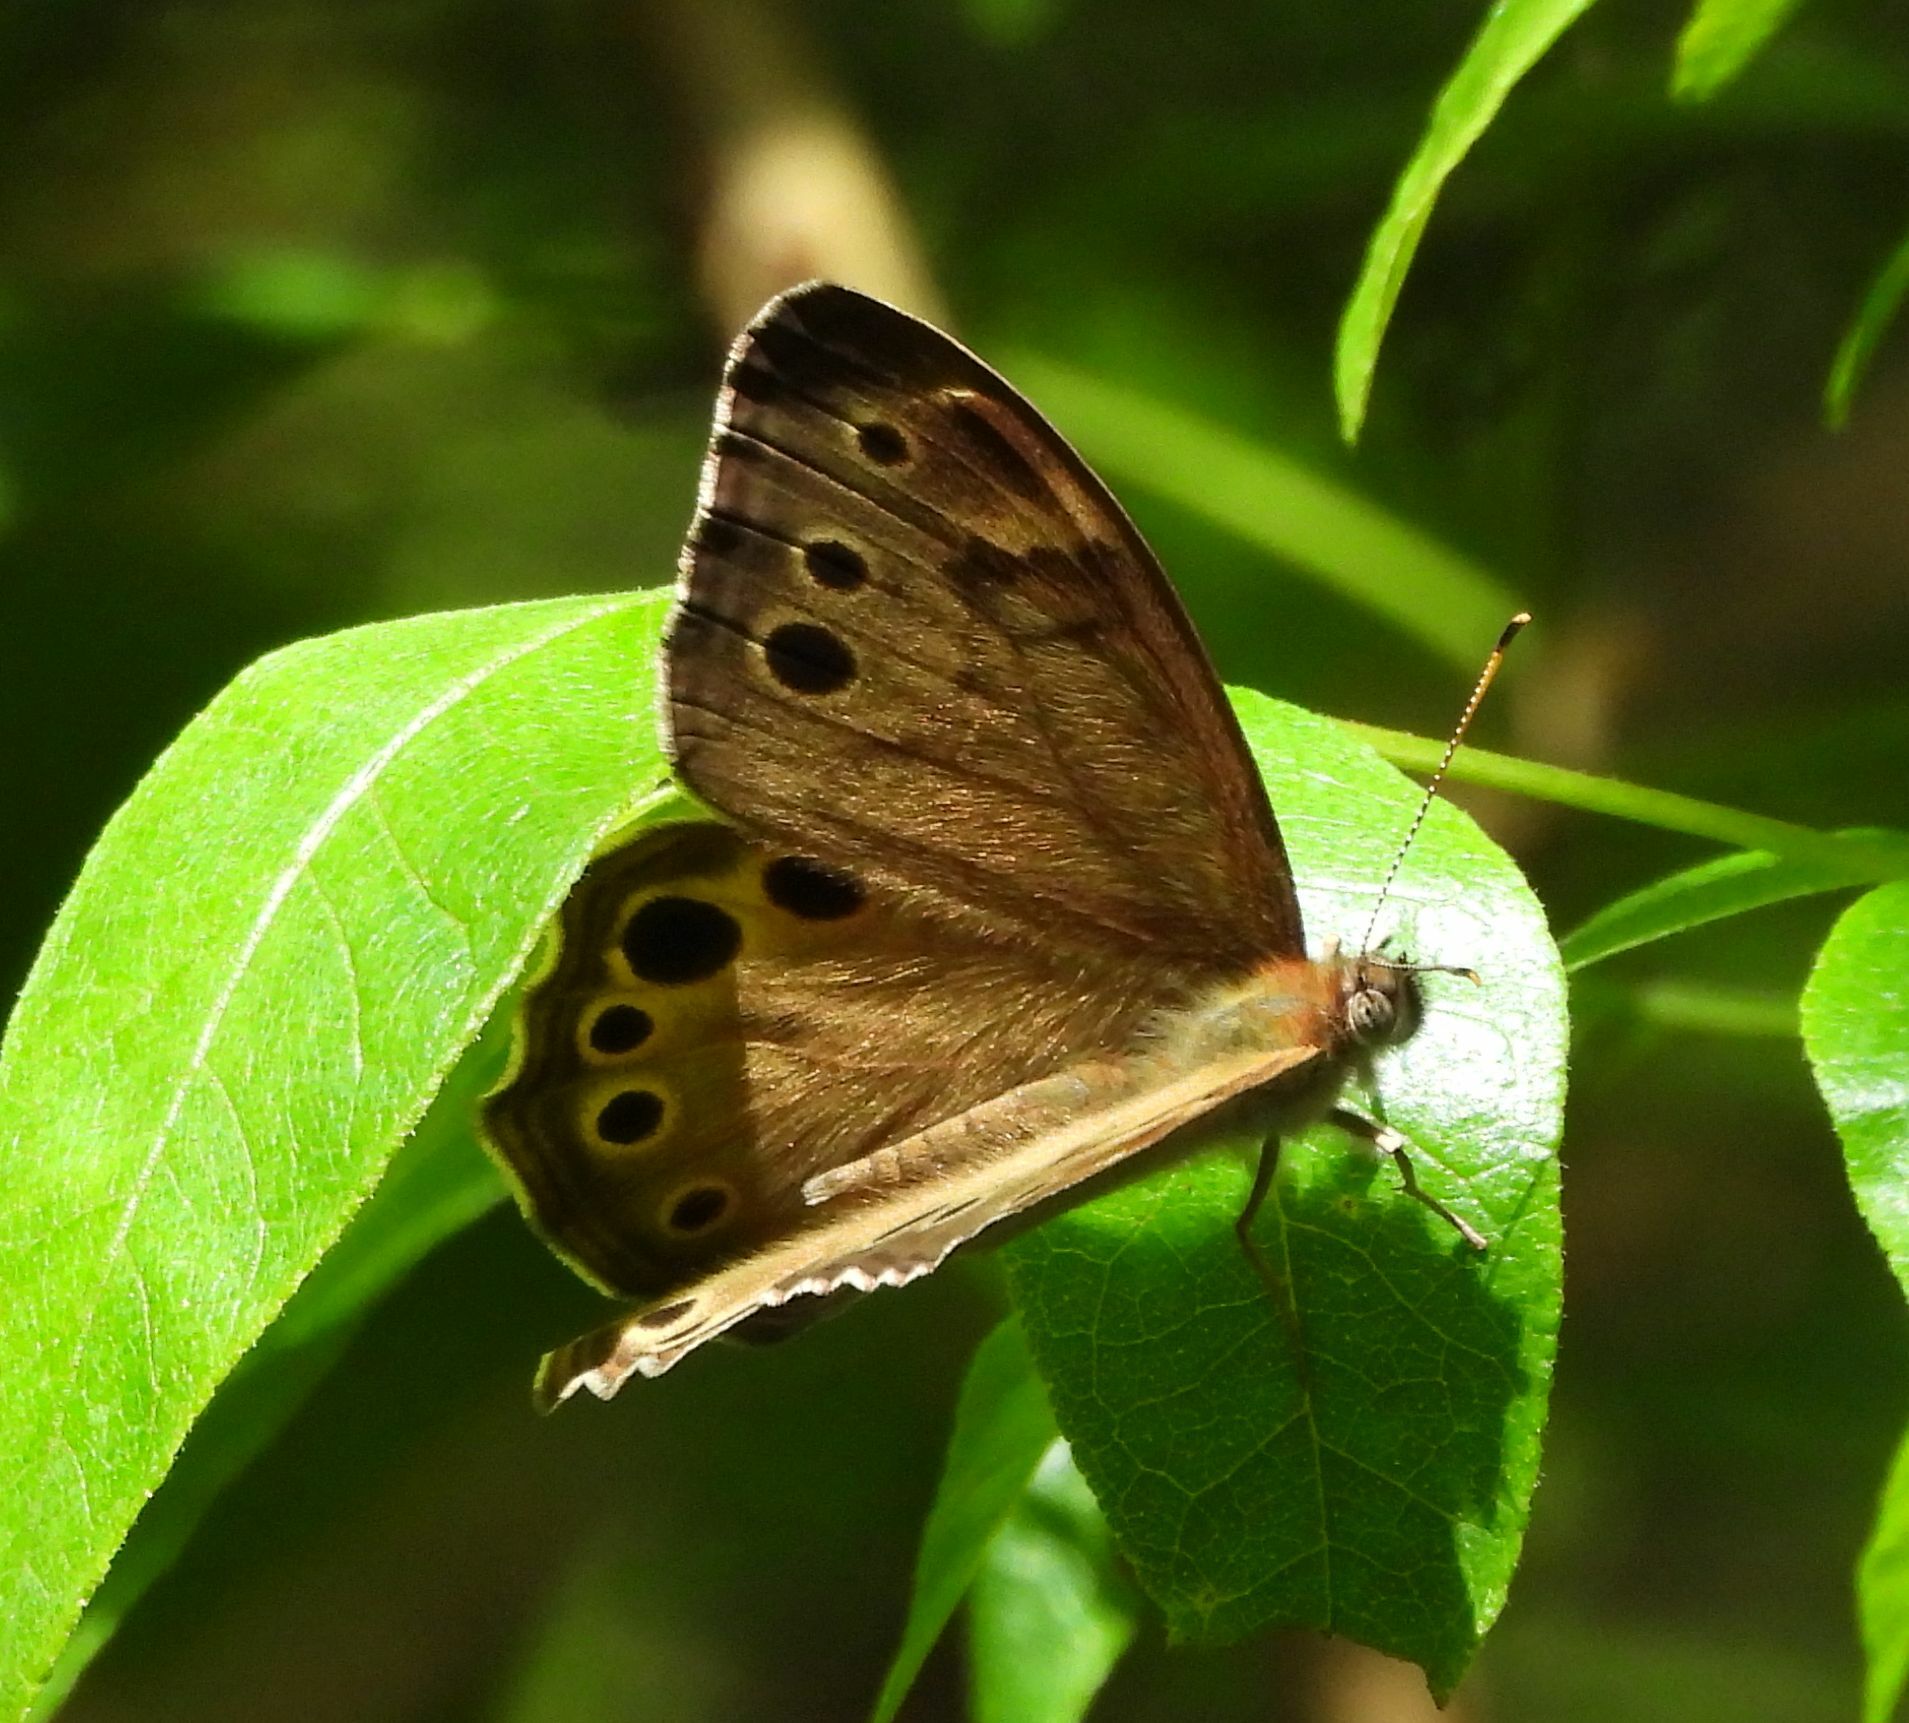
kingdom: Animalia
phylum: Arthropoda
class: Insecta
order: Lepidoptera
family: Nymphalidae
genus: Lethe
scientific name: Lethe anthedon
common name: Northern pearly-eye
